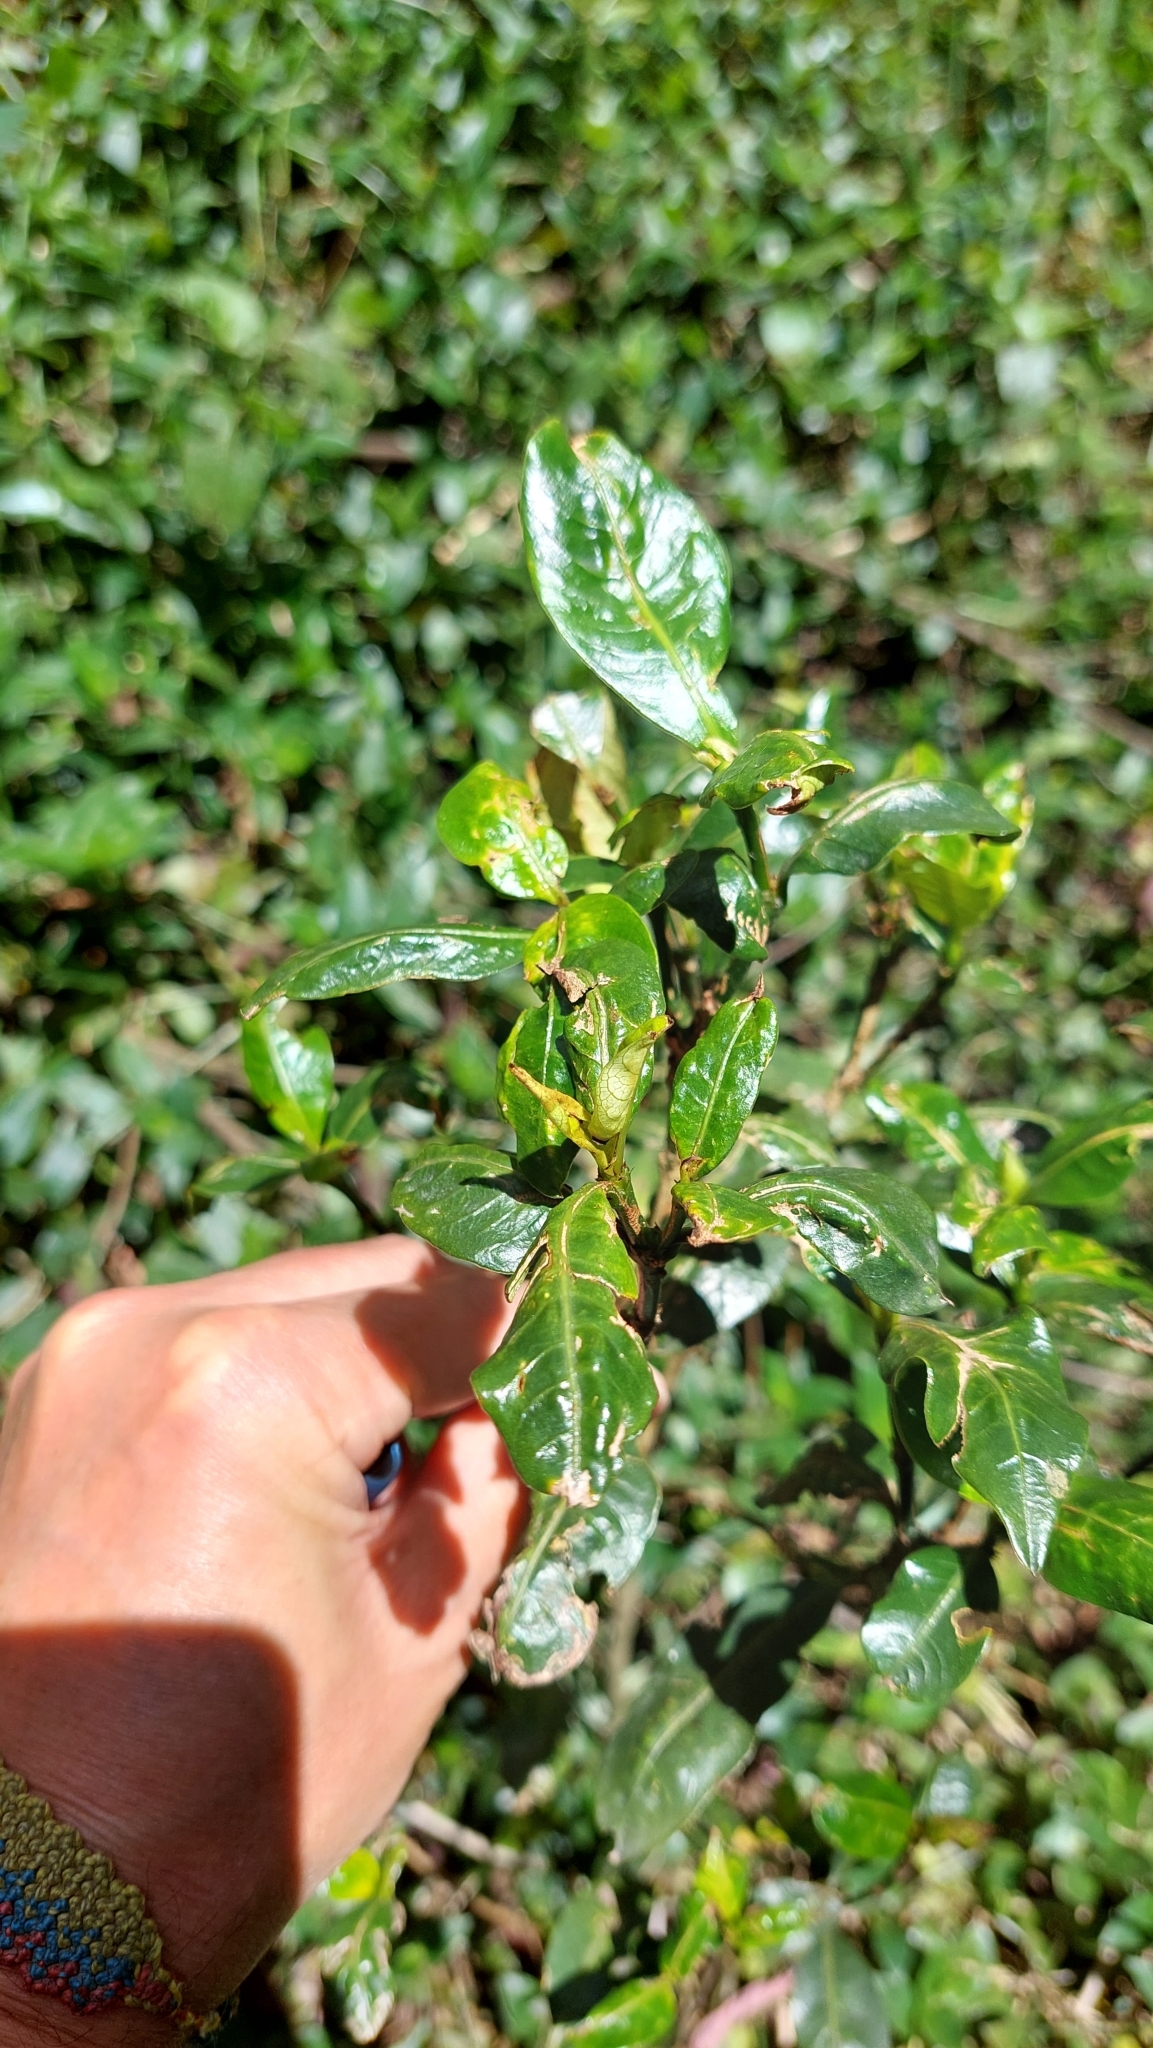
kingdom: Plantae
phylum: Tracheophyta
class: Magnoliopsida
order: Gentianales
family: Rubiaceae
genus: Palicourea
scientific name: Palicourea boqueronensis
